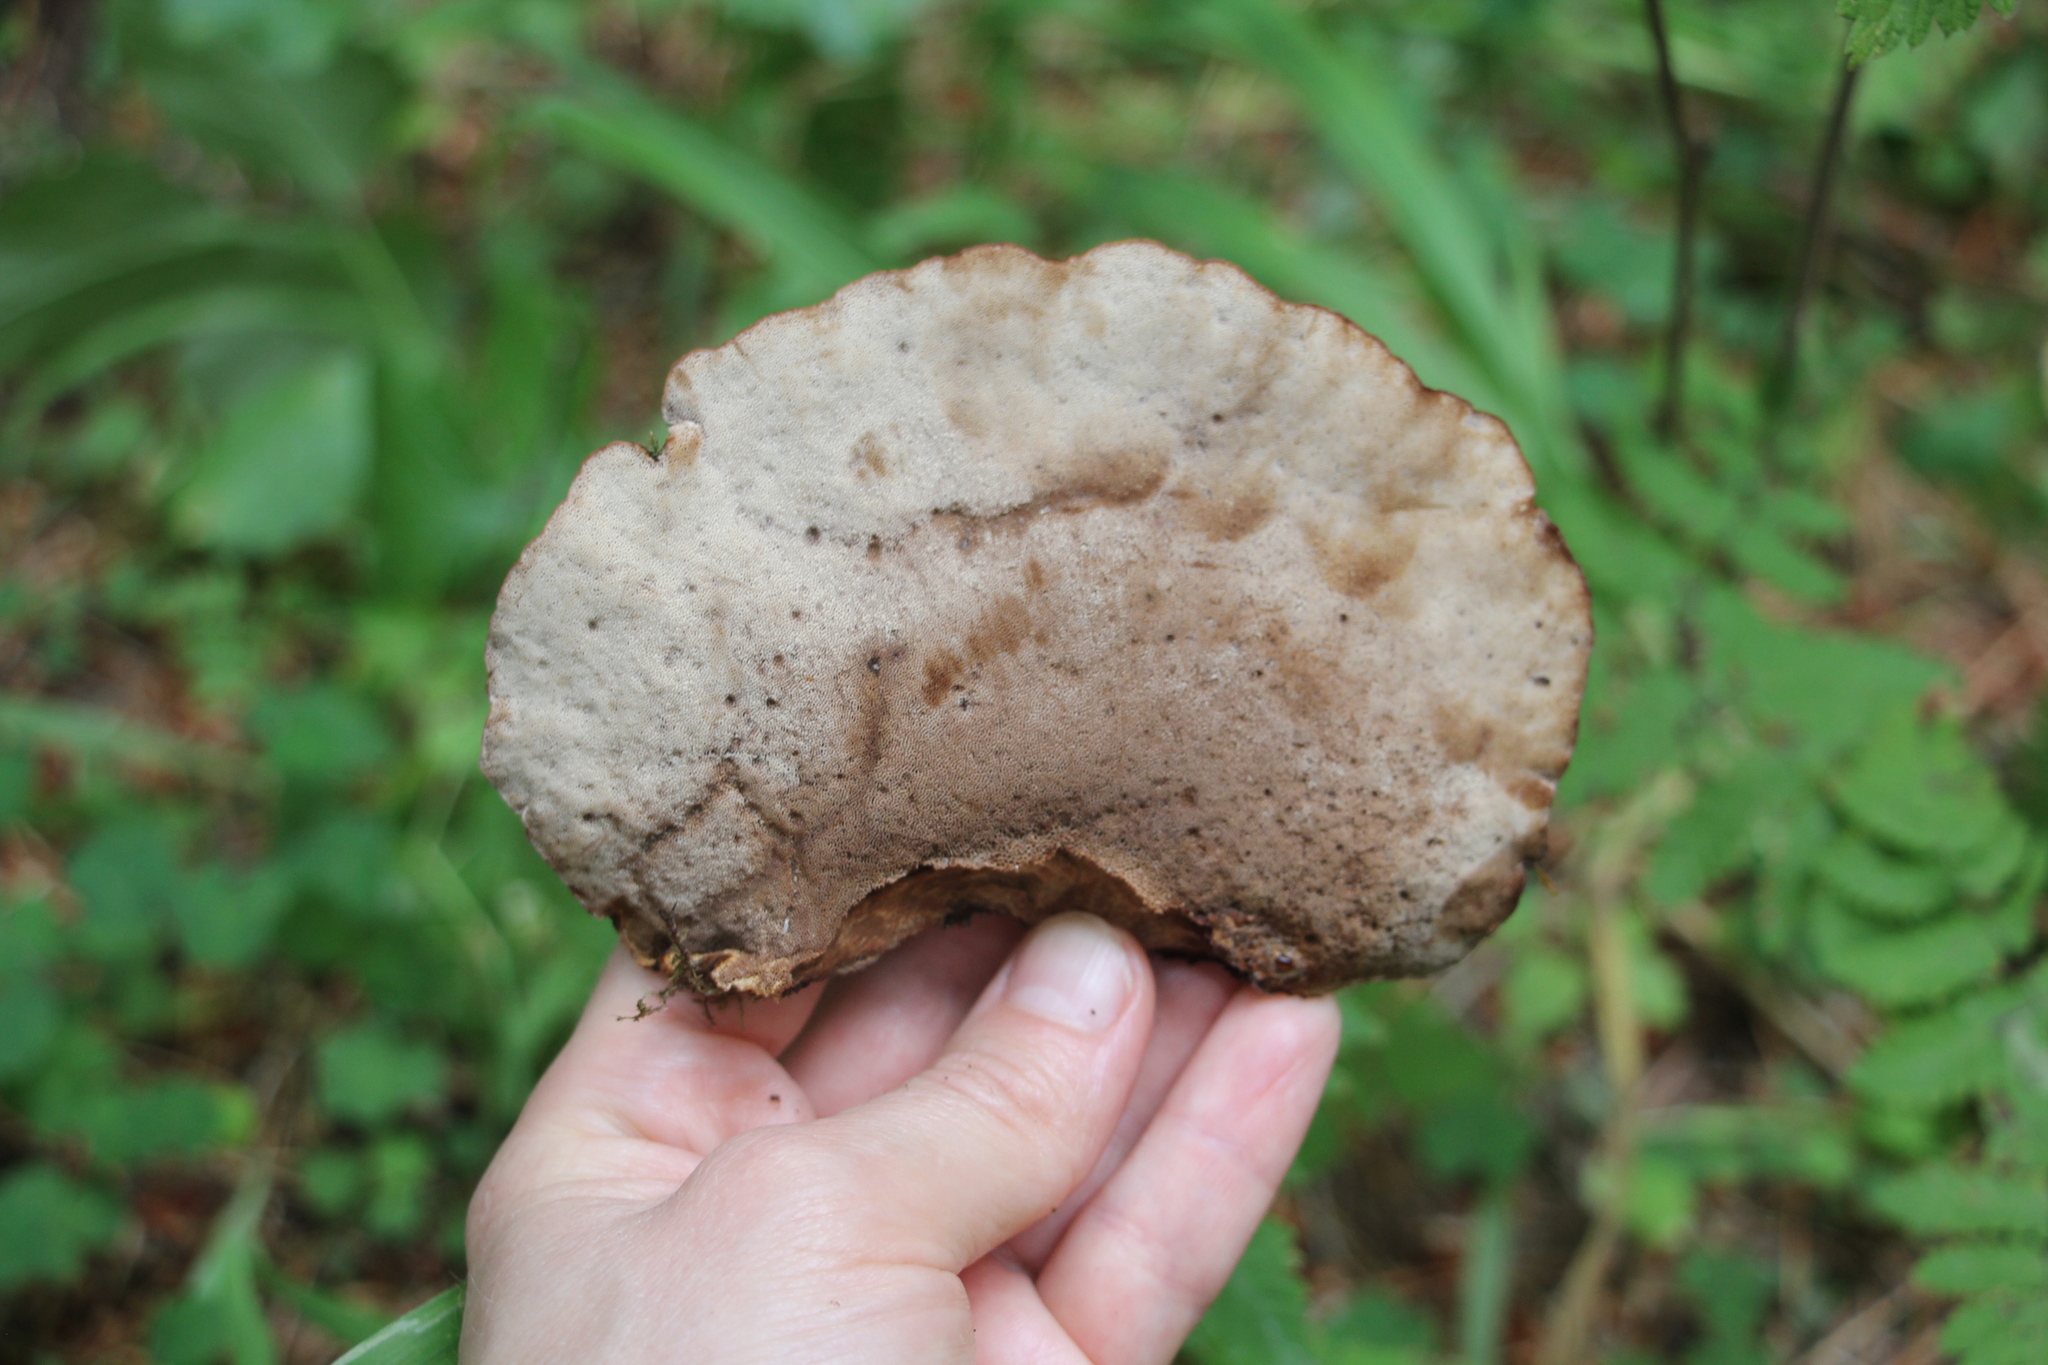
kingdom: Fungi
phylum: Basidiomycota
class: Agaricomycetes
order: Polyporales
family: Ischnodermataceae
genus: Ischnoderma
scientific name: Ischnoderma benzoinum
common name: Benzoin bracket
